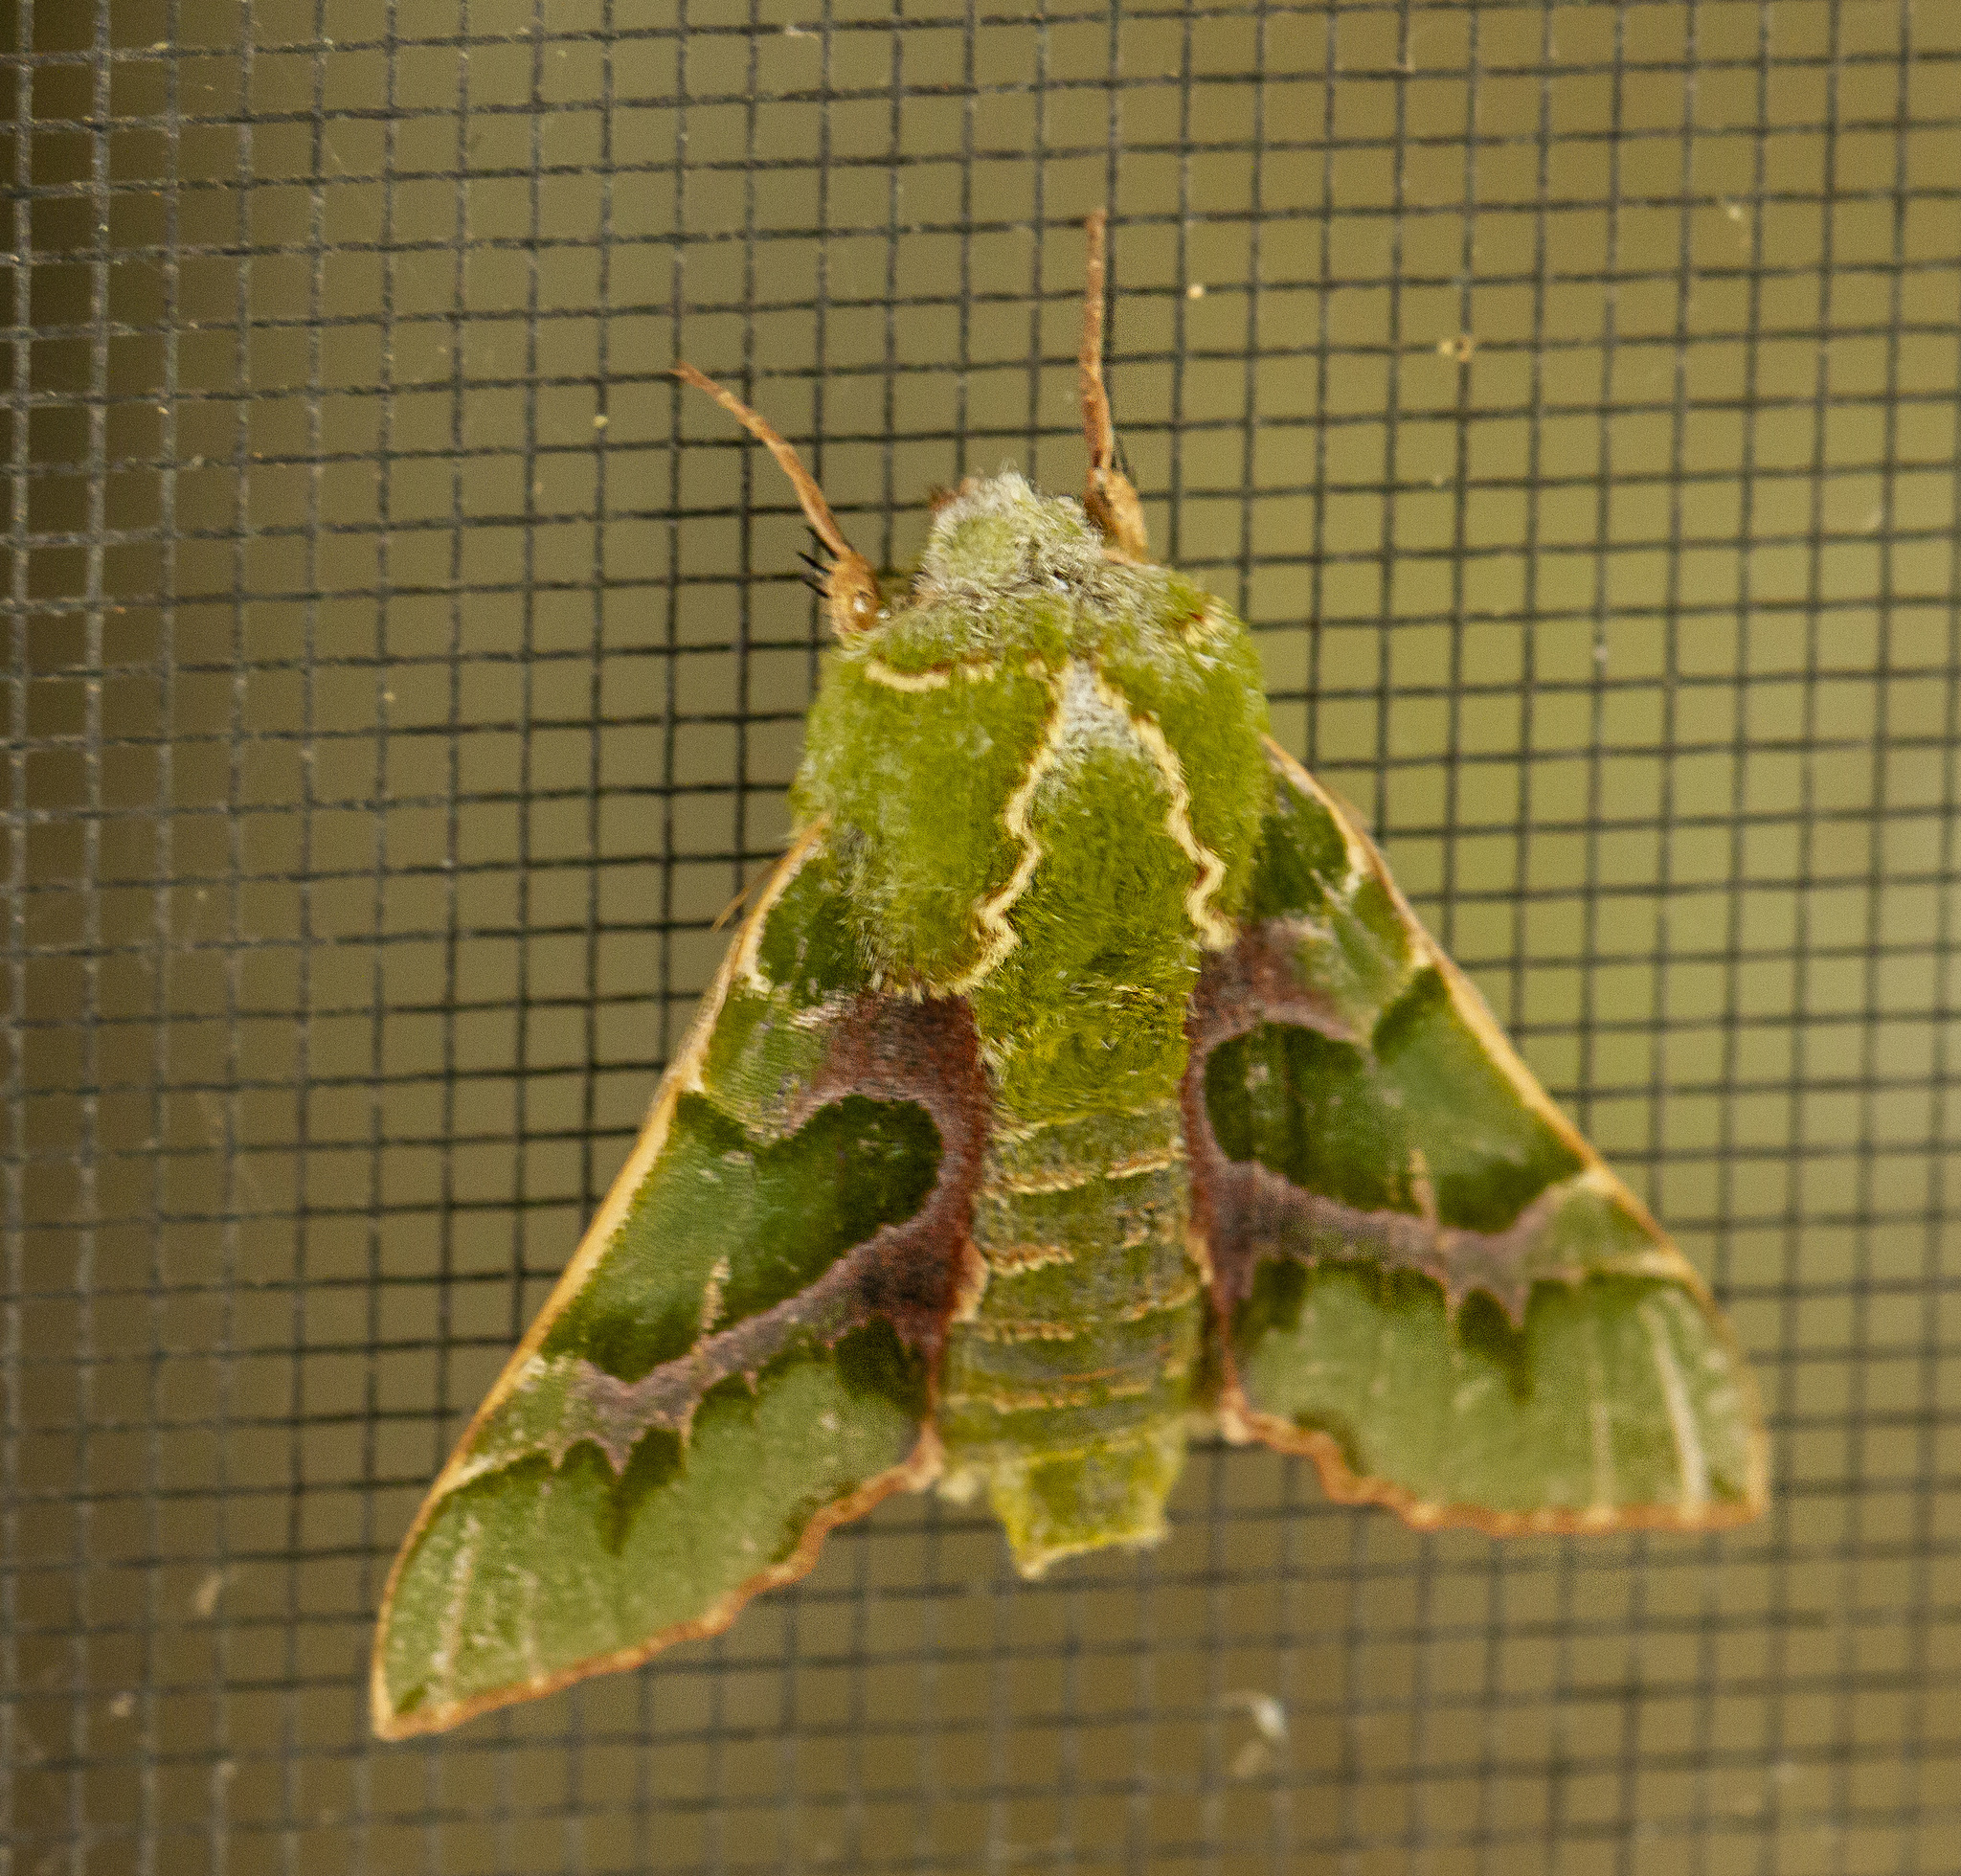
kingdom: Animalia
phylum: Arthropoda
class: Insecta
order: Lepidoptera
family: Sphingidae
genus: Proserpinus
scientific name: Proserpinus lucidus
